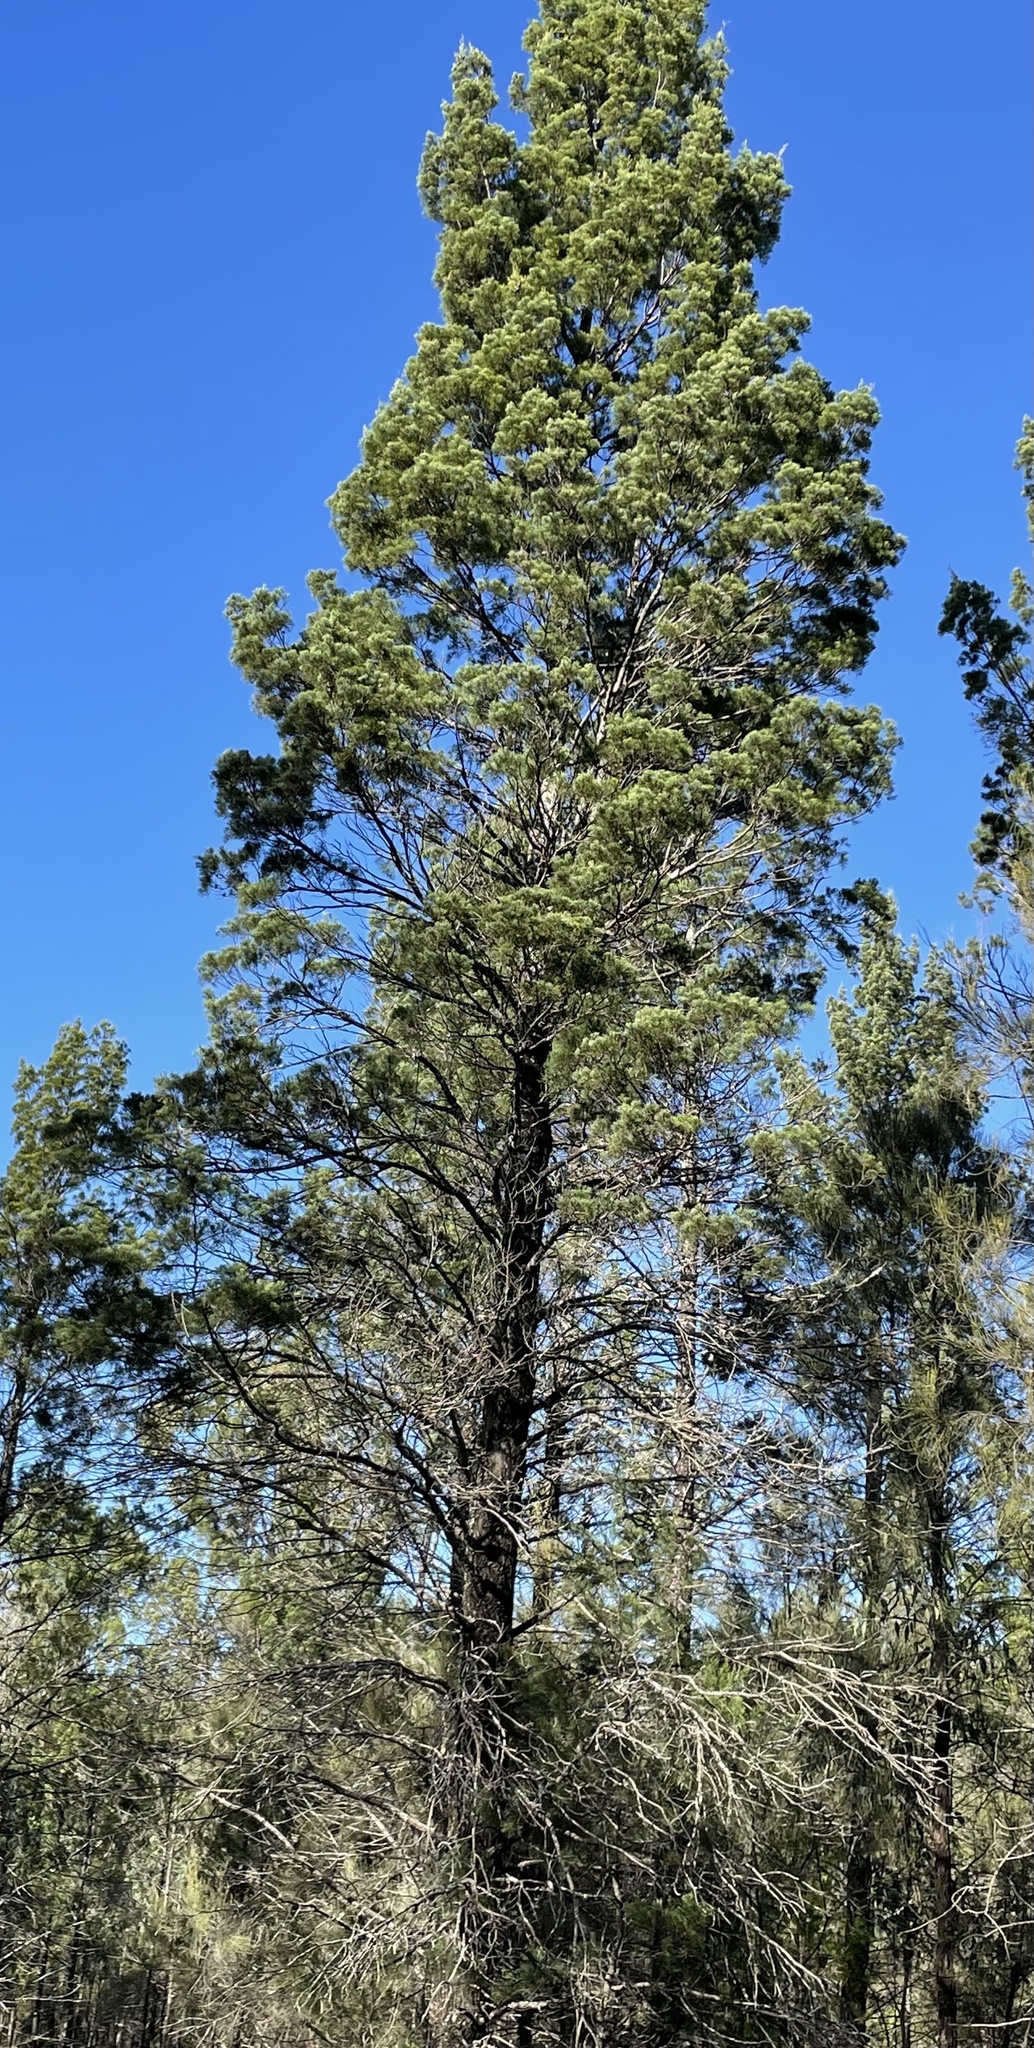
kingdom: Plantae
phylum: Tracheophyta
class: Pinopsida
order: Pinales
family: Cupressaceae
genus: Callitris
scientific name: Callitris endlicheri
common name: Black cypress-pine
